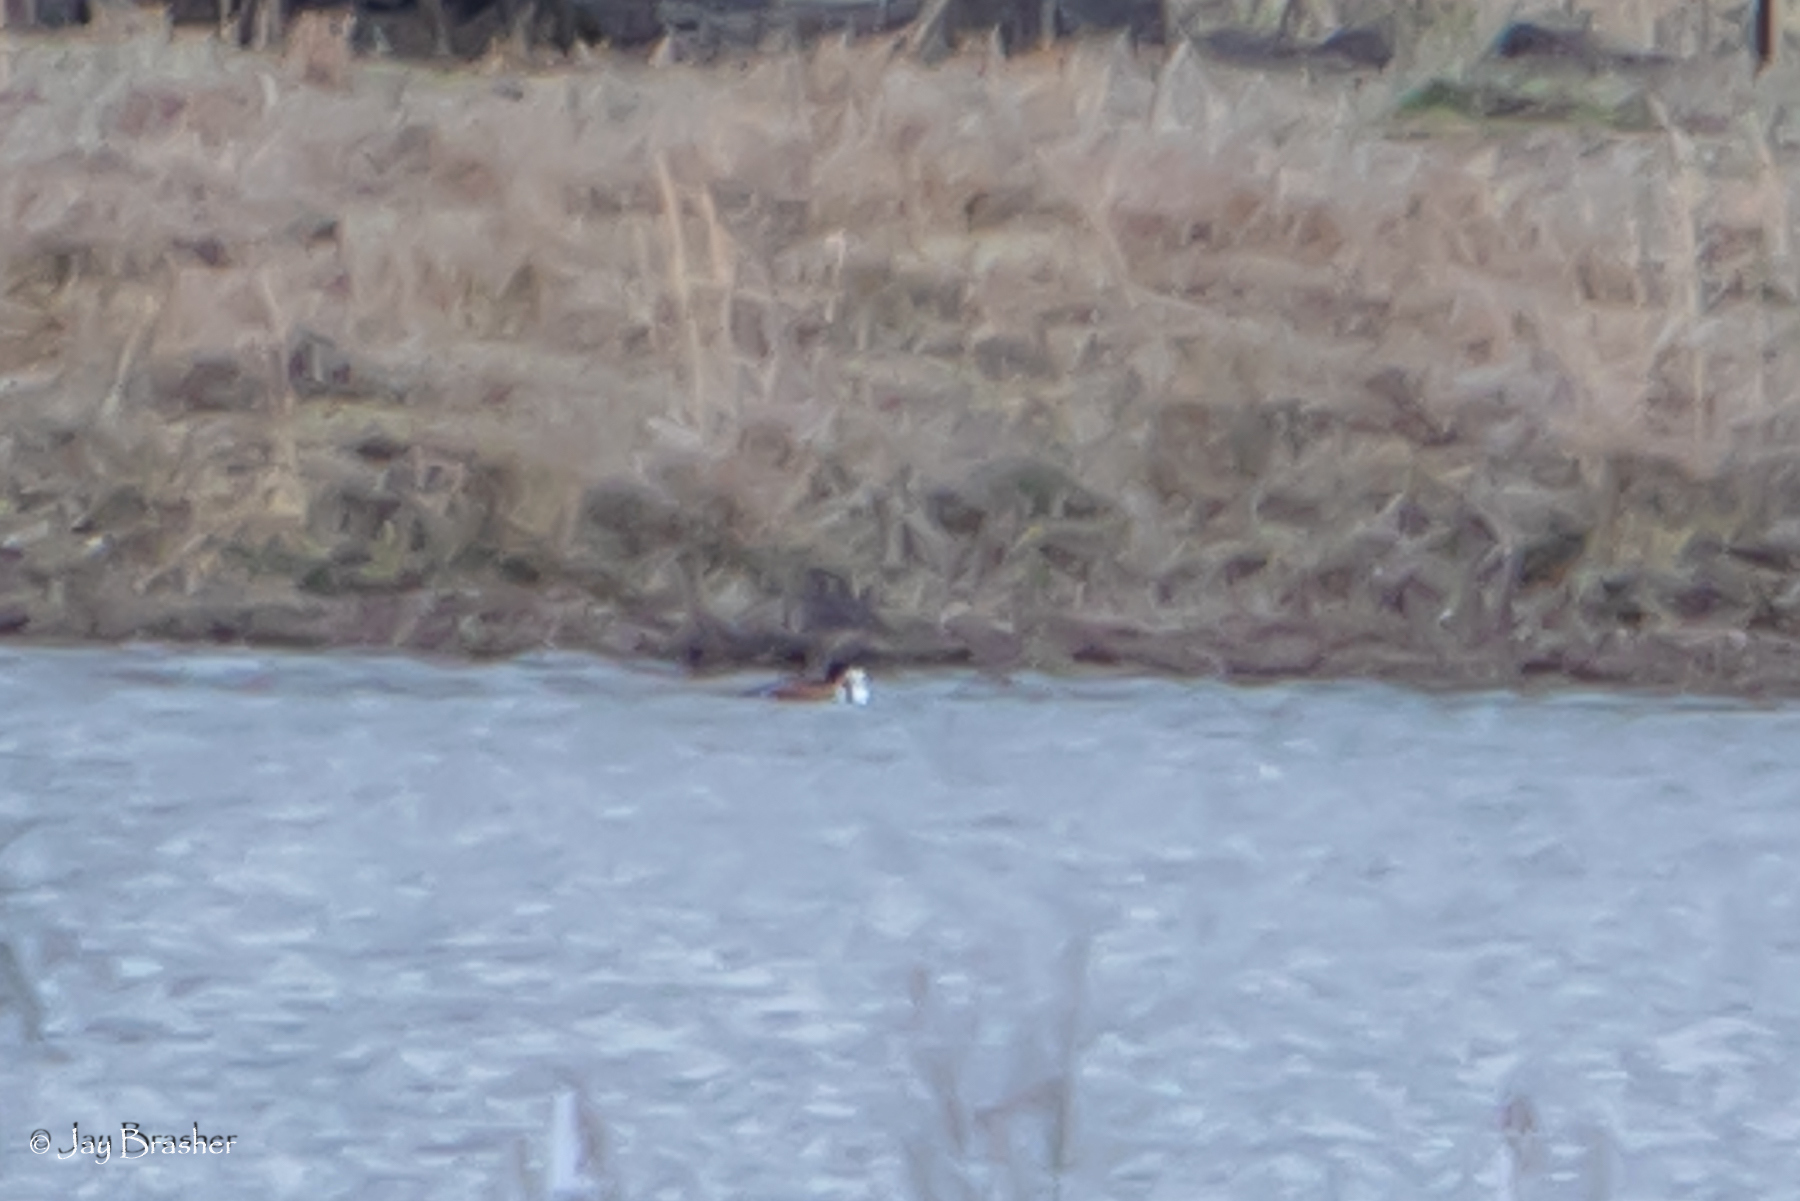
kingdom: Animalia
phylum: Chordata
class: Aves
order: Anseriformes
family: Anatidae
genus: Lophodytes
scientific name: Lophodytes cucullatus
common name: Hooded merganser
